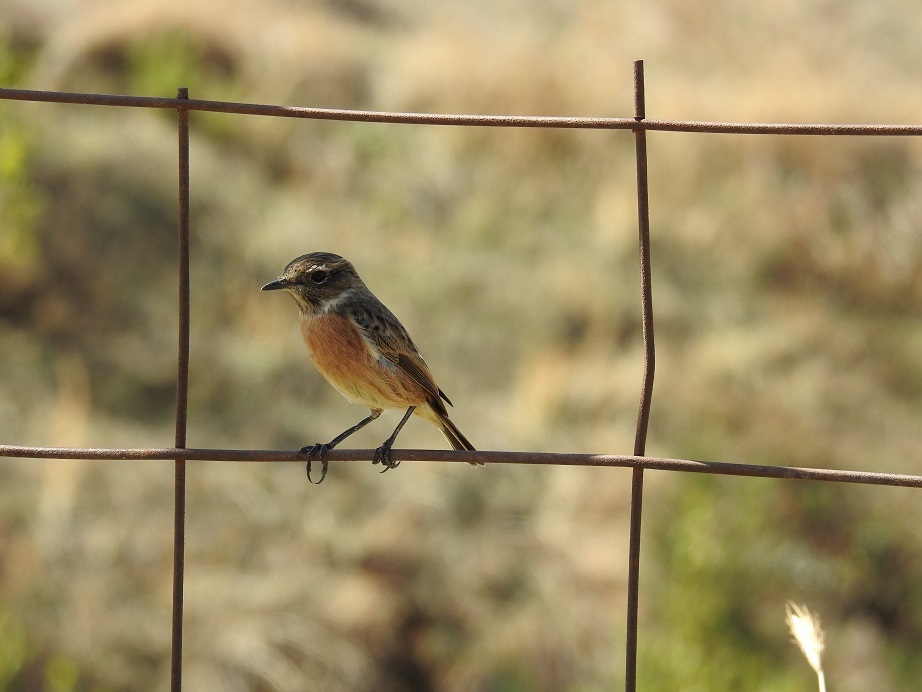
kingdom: Animalia
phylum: Chordata
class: Aves
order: Passeriformes
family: Muscicapidae
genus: Saxicola
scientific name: Saxicola rubicola
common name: European stonechat
